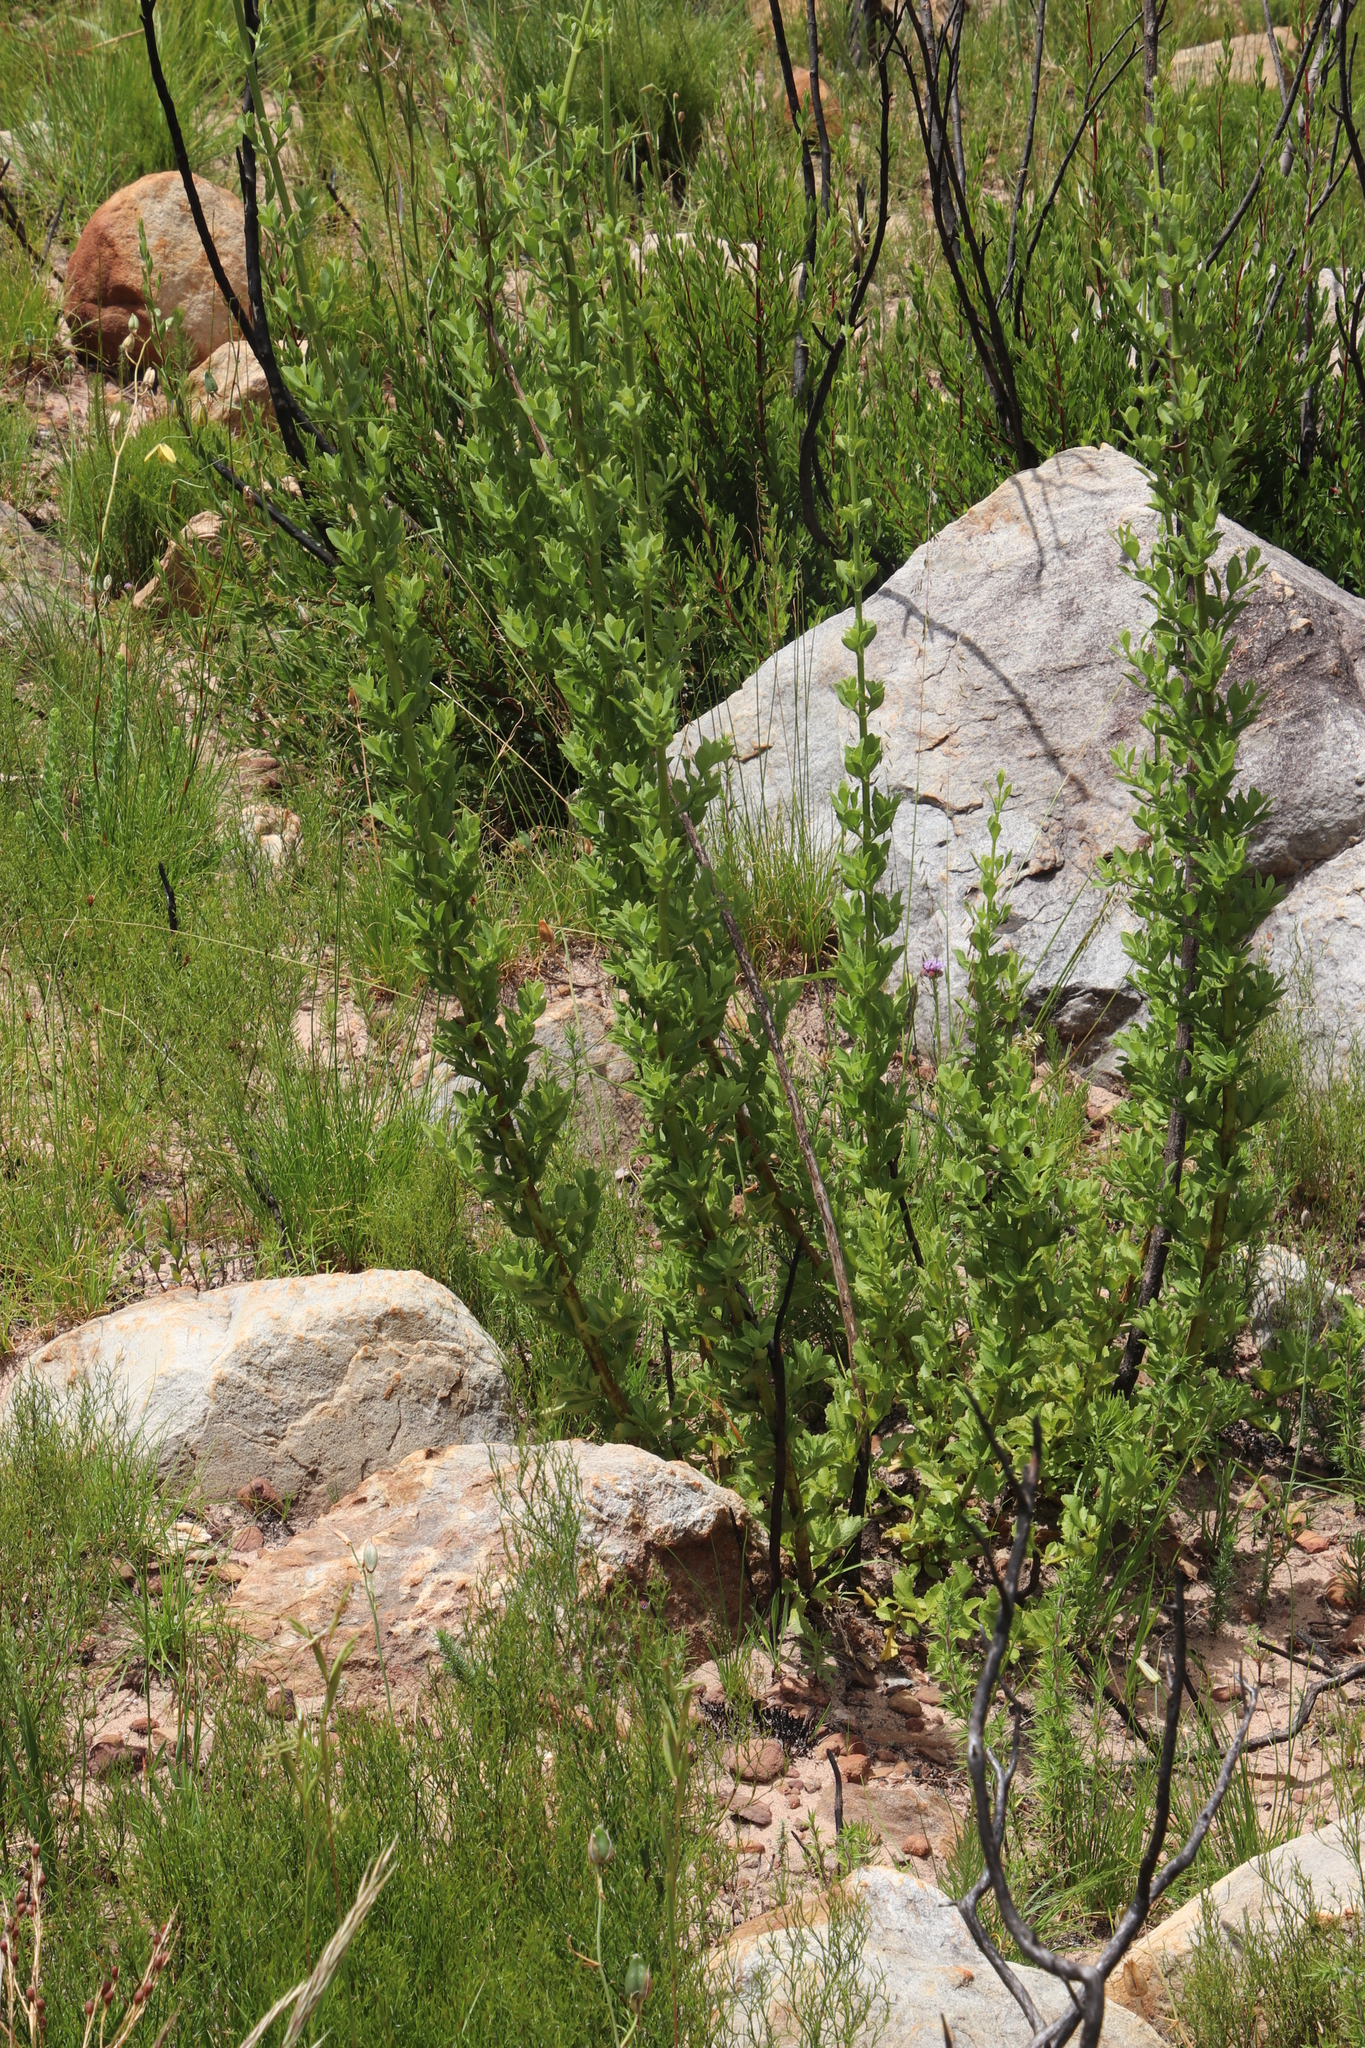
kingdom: Plantae
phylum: Tracheophyta
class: Magnoliopsida
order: Lamiales
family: Lamiaceae
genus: Salvia
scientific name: Salvia chamelaeagnea
